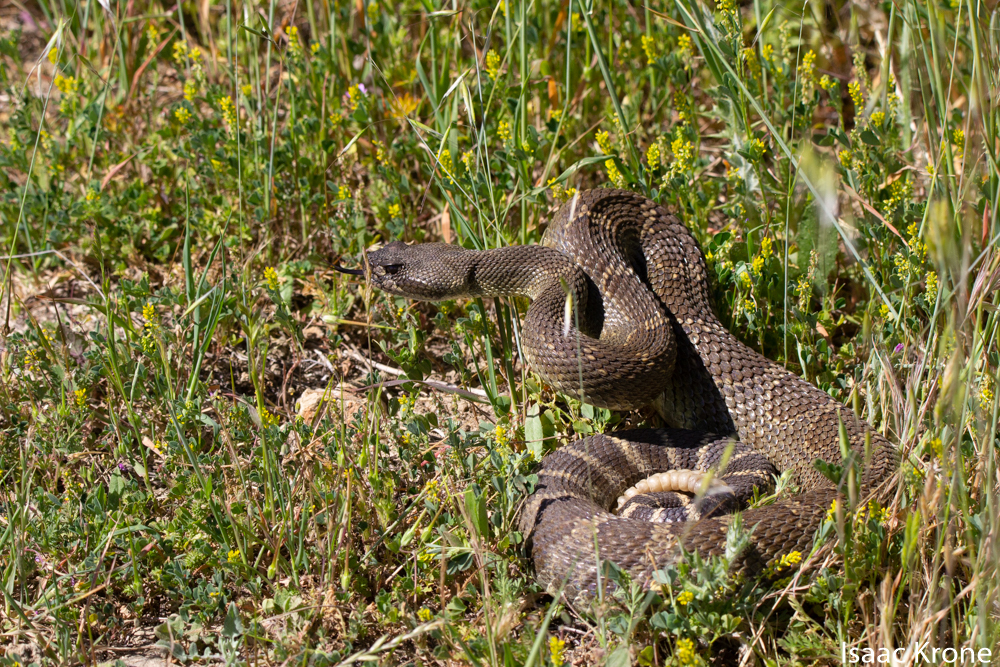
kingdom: Animalia
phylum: Chordata
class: Squamata
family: Viperidae
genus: Crotalus
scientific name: Crotalus oreganus
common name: Abyssus
